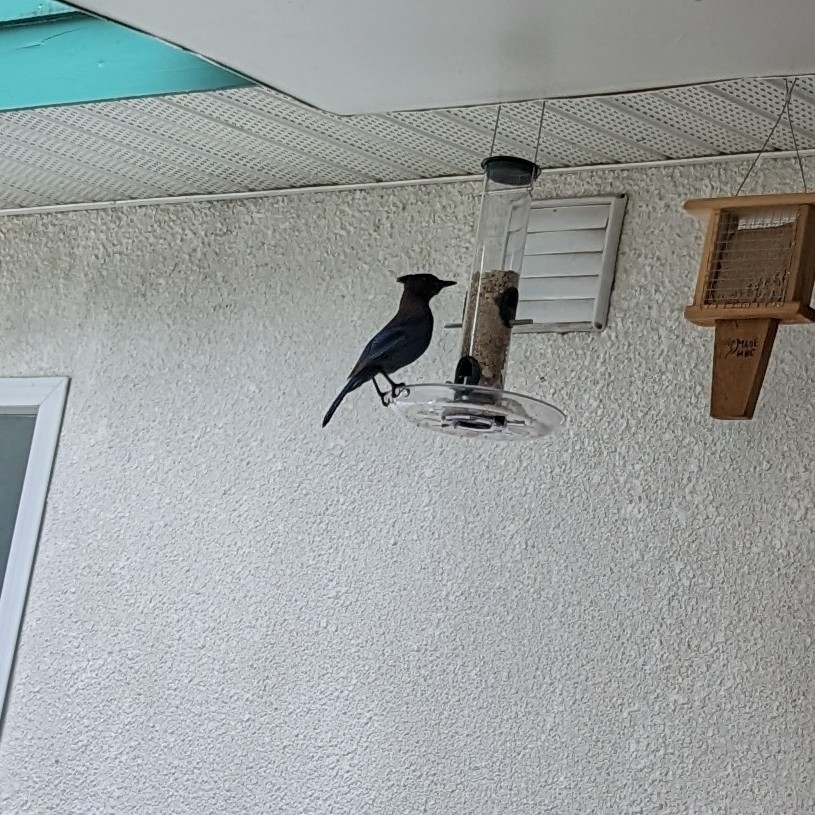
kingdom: Animalia
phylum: Chordata
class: Aves
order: Passeriformes
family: Corvidae
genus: Cyanocitta
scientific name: Cyanocitta stelleri
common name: Steller's jay
